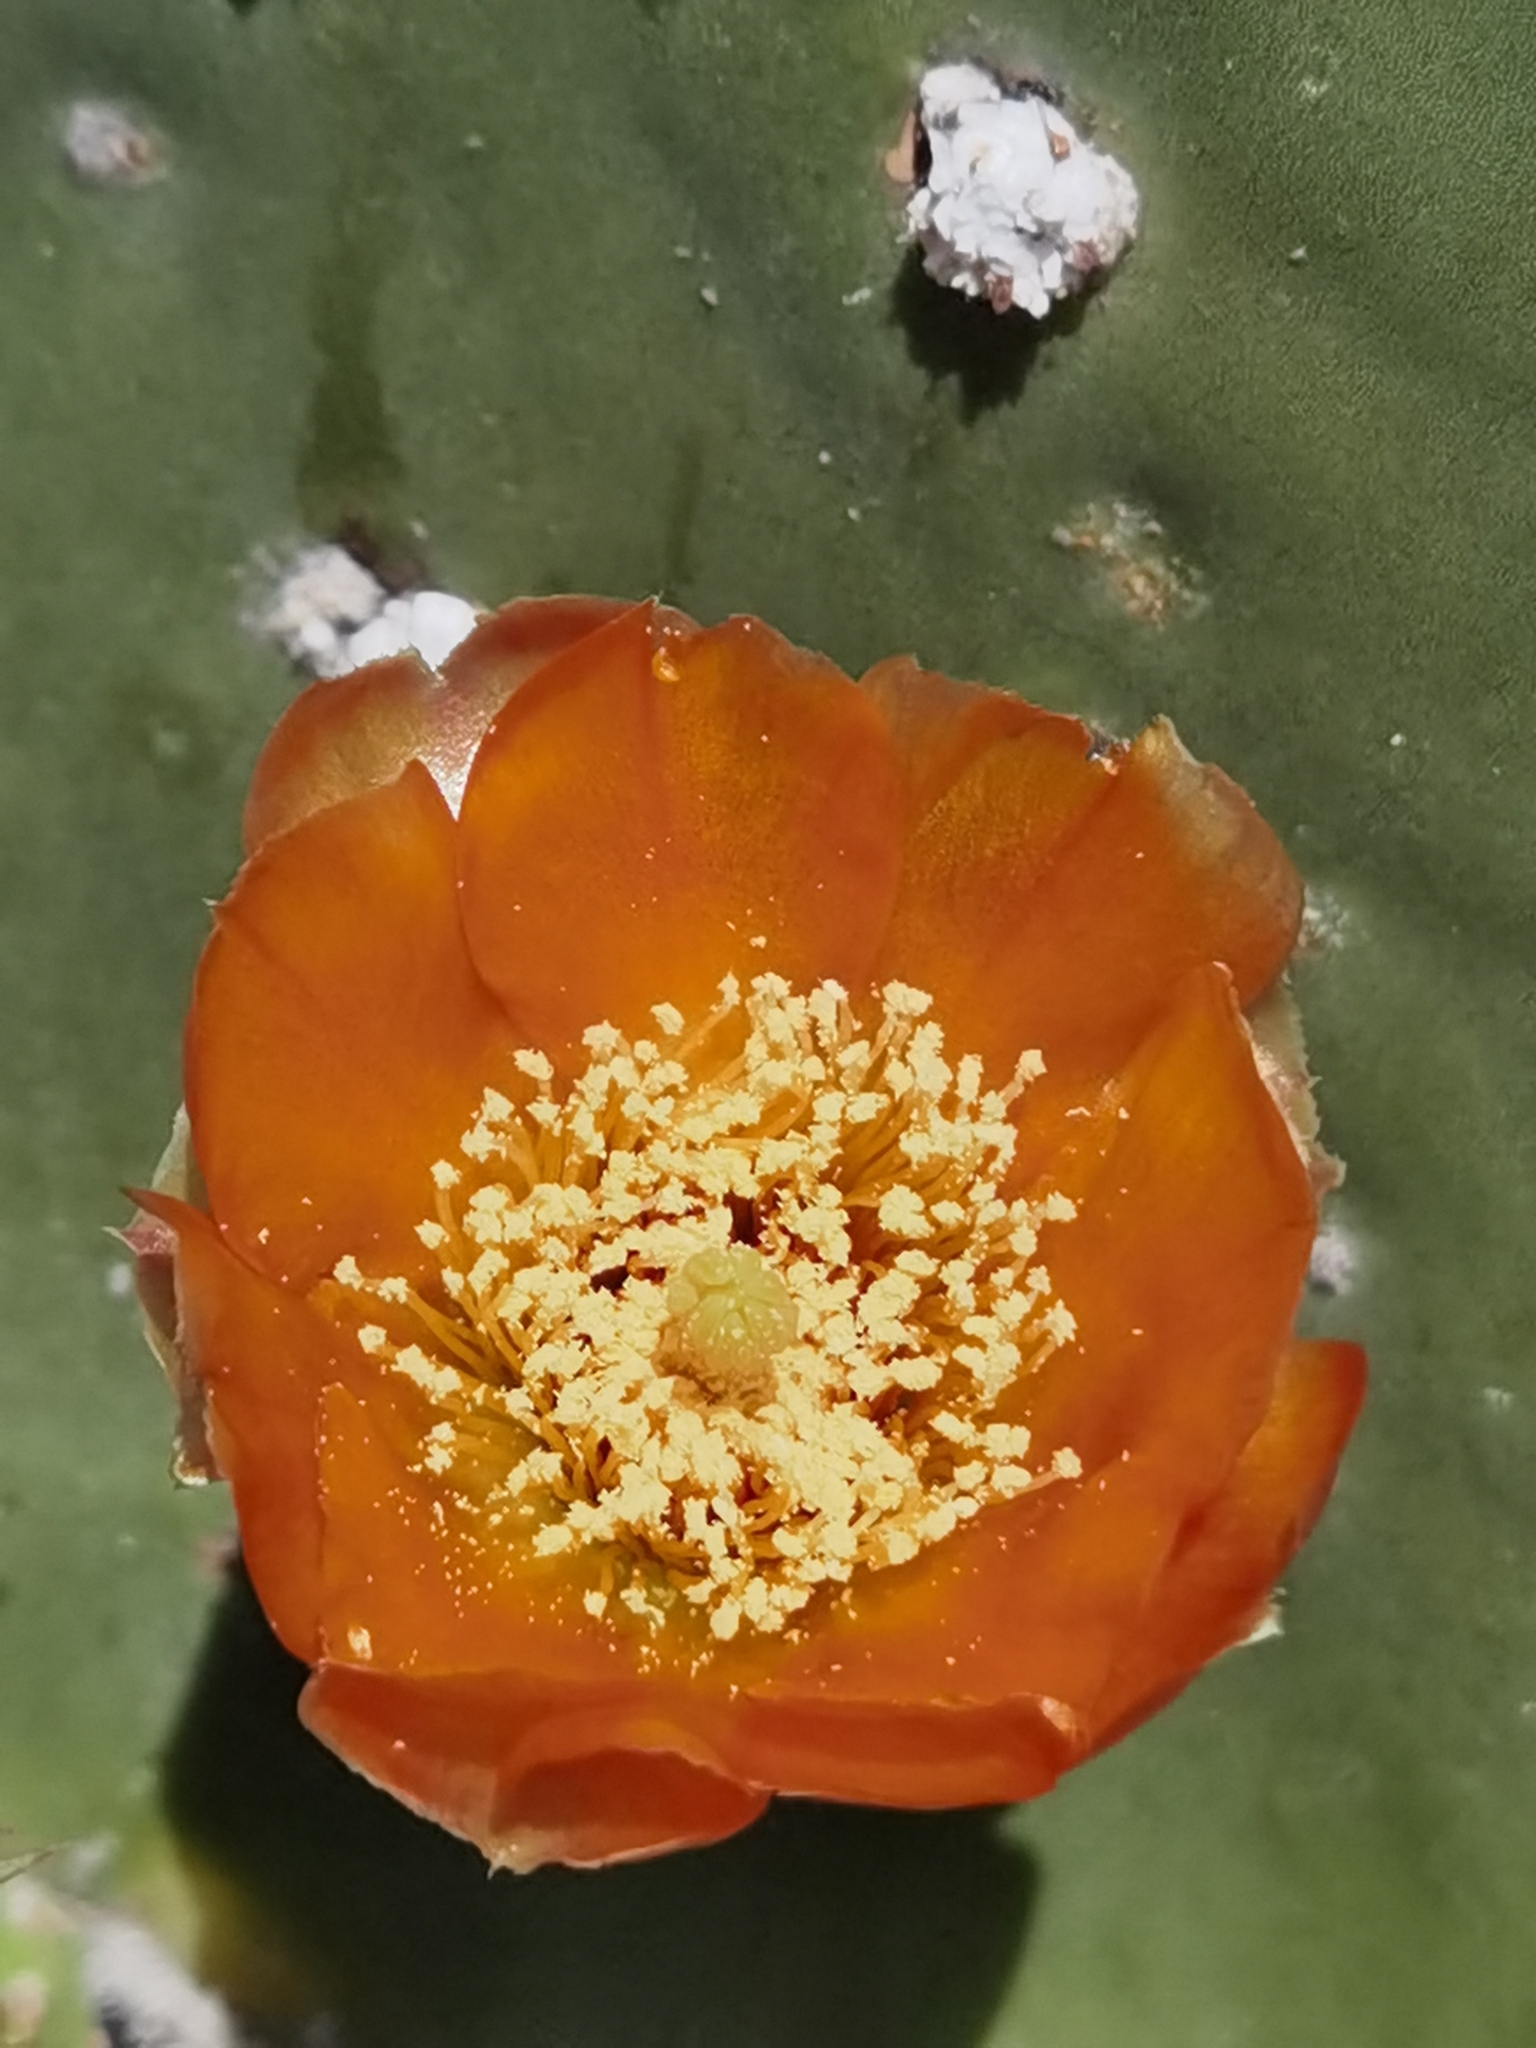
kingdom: Plantae
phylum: Tracheophyta
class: Magnoliopsida
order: Caryophyllales
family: Cactaceae
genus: Opuntia
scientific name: Opuntia ficus-indica
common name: Barbary fig
